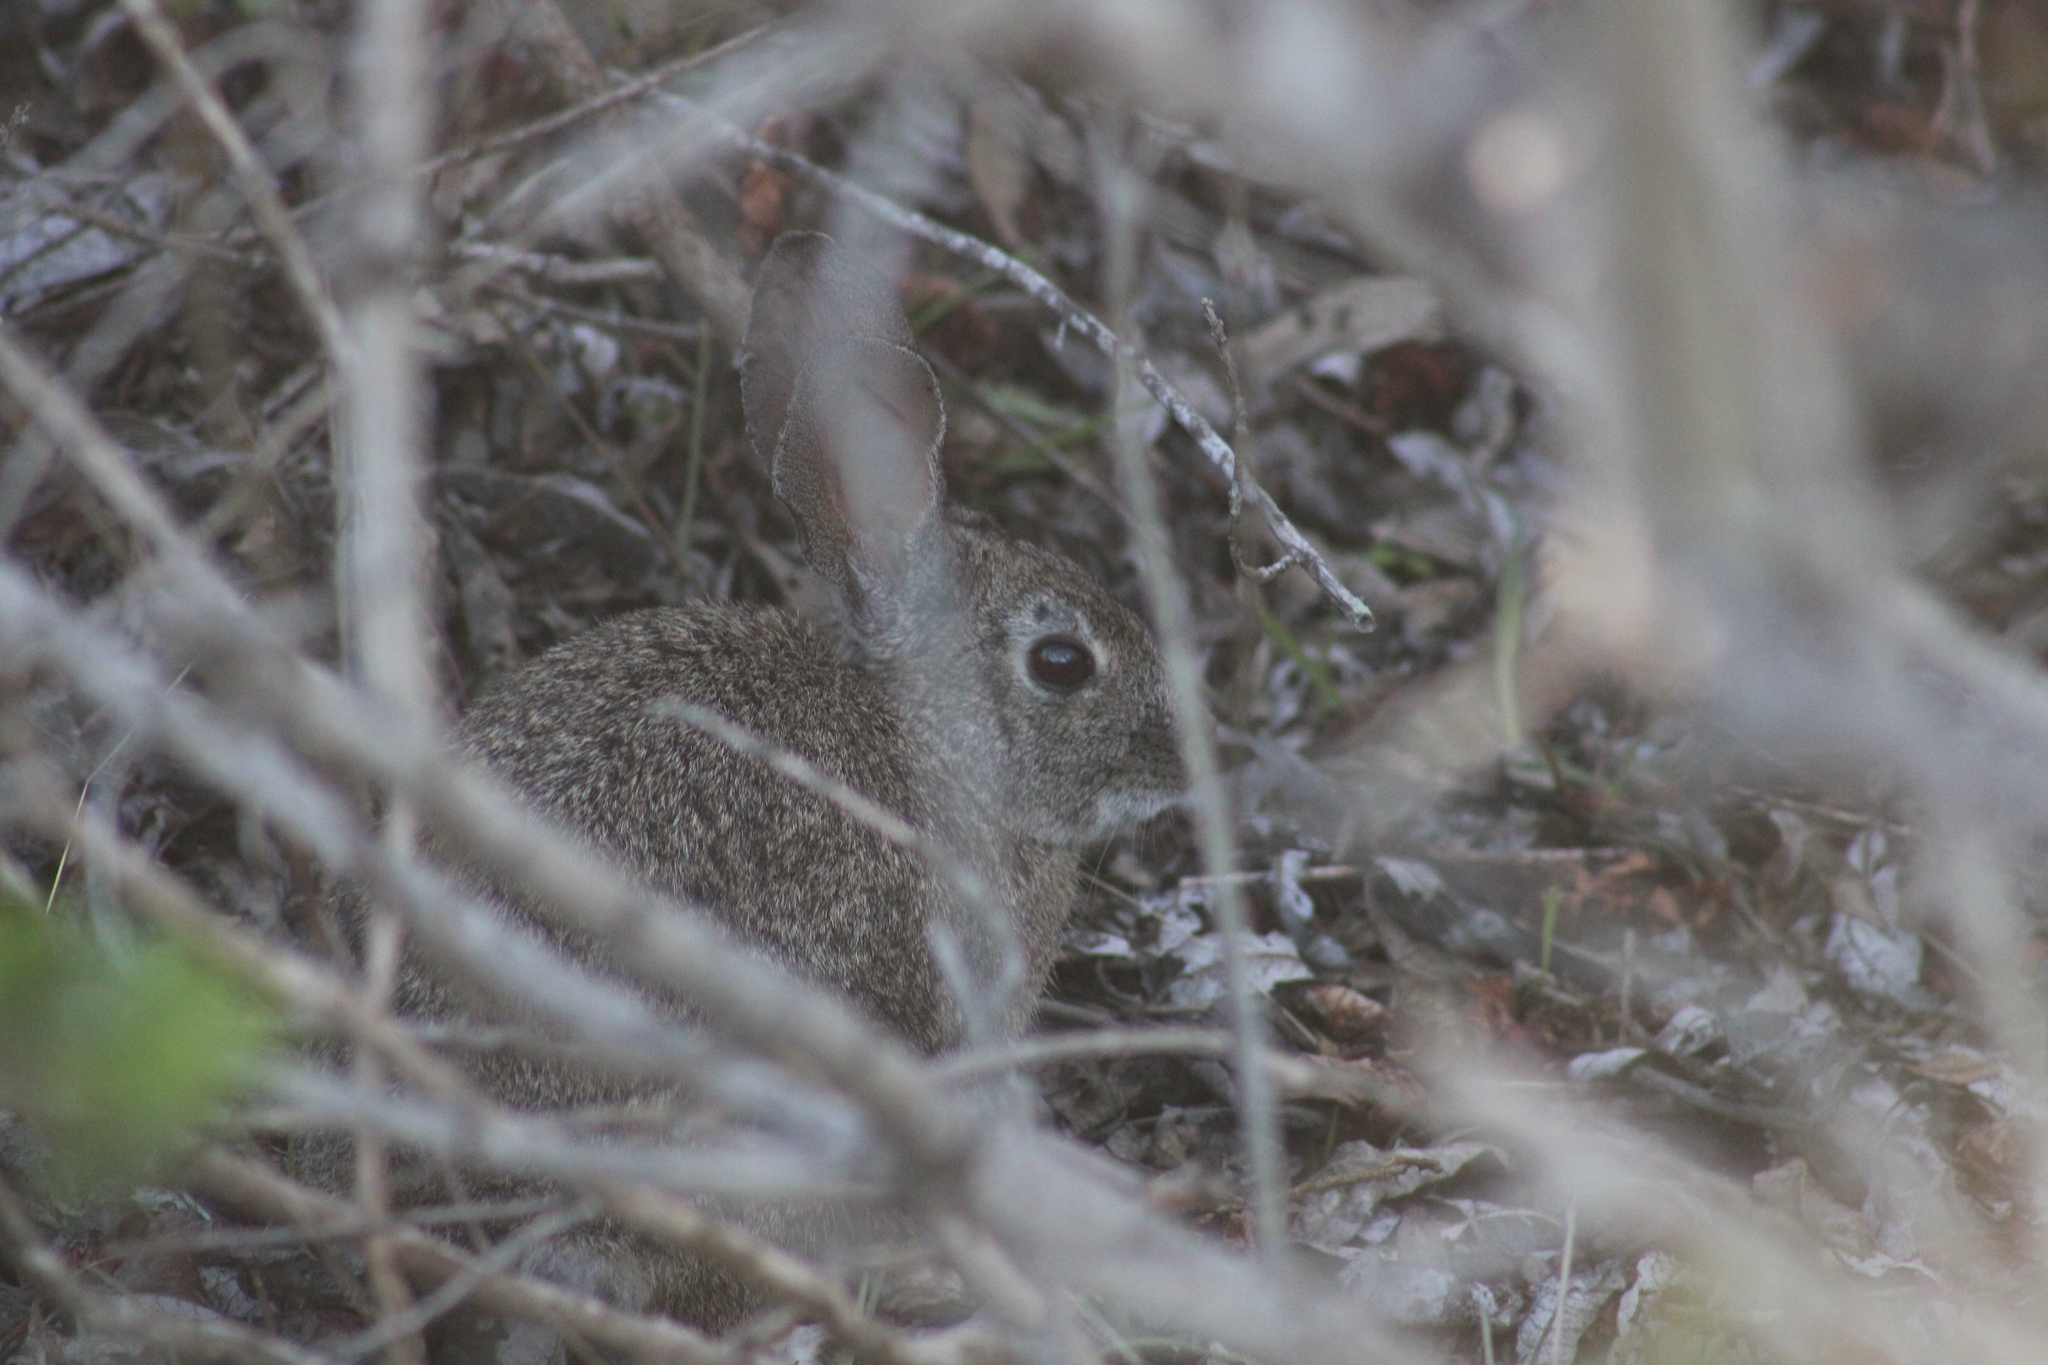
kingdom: Animalia
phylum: Chordata
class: Mammalia
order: Lagomorpha
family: Leporidae
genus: Sylvilagus
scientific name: Sylvilagus bachmani
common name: Brush rabbit
